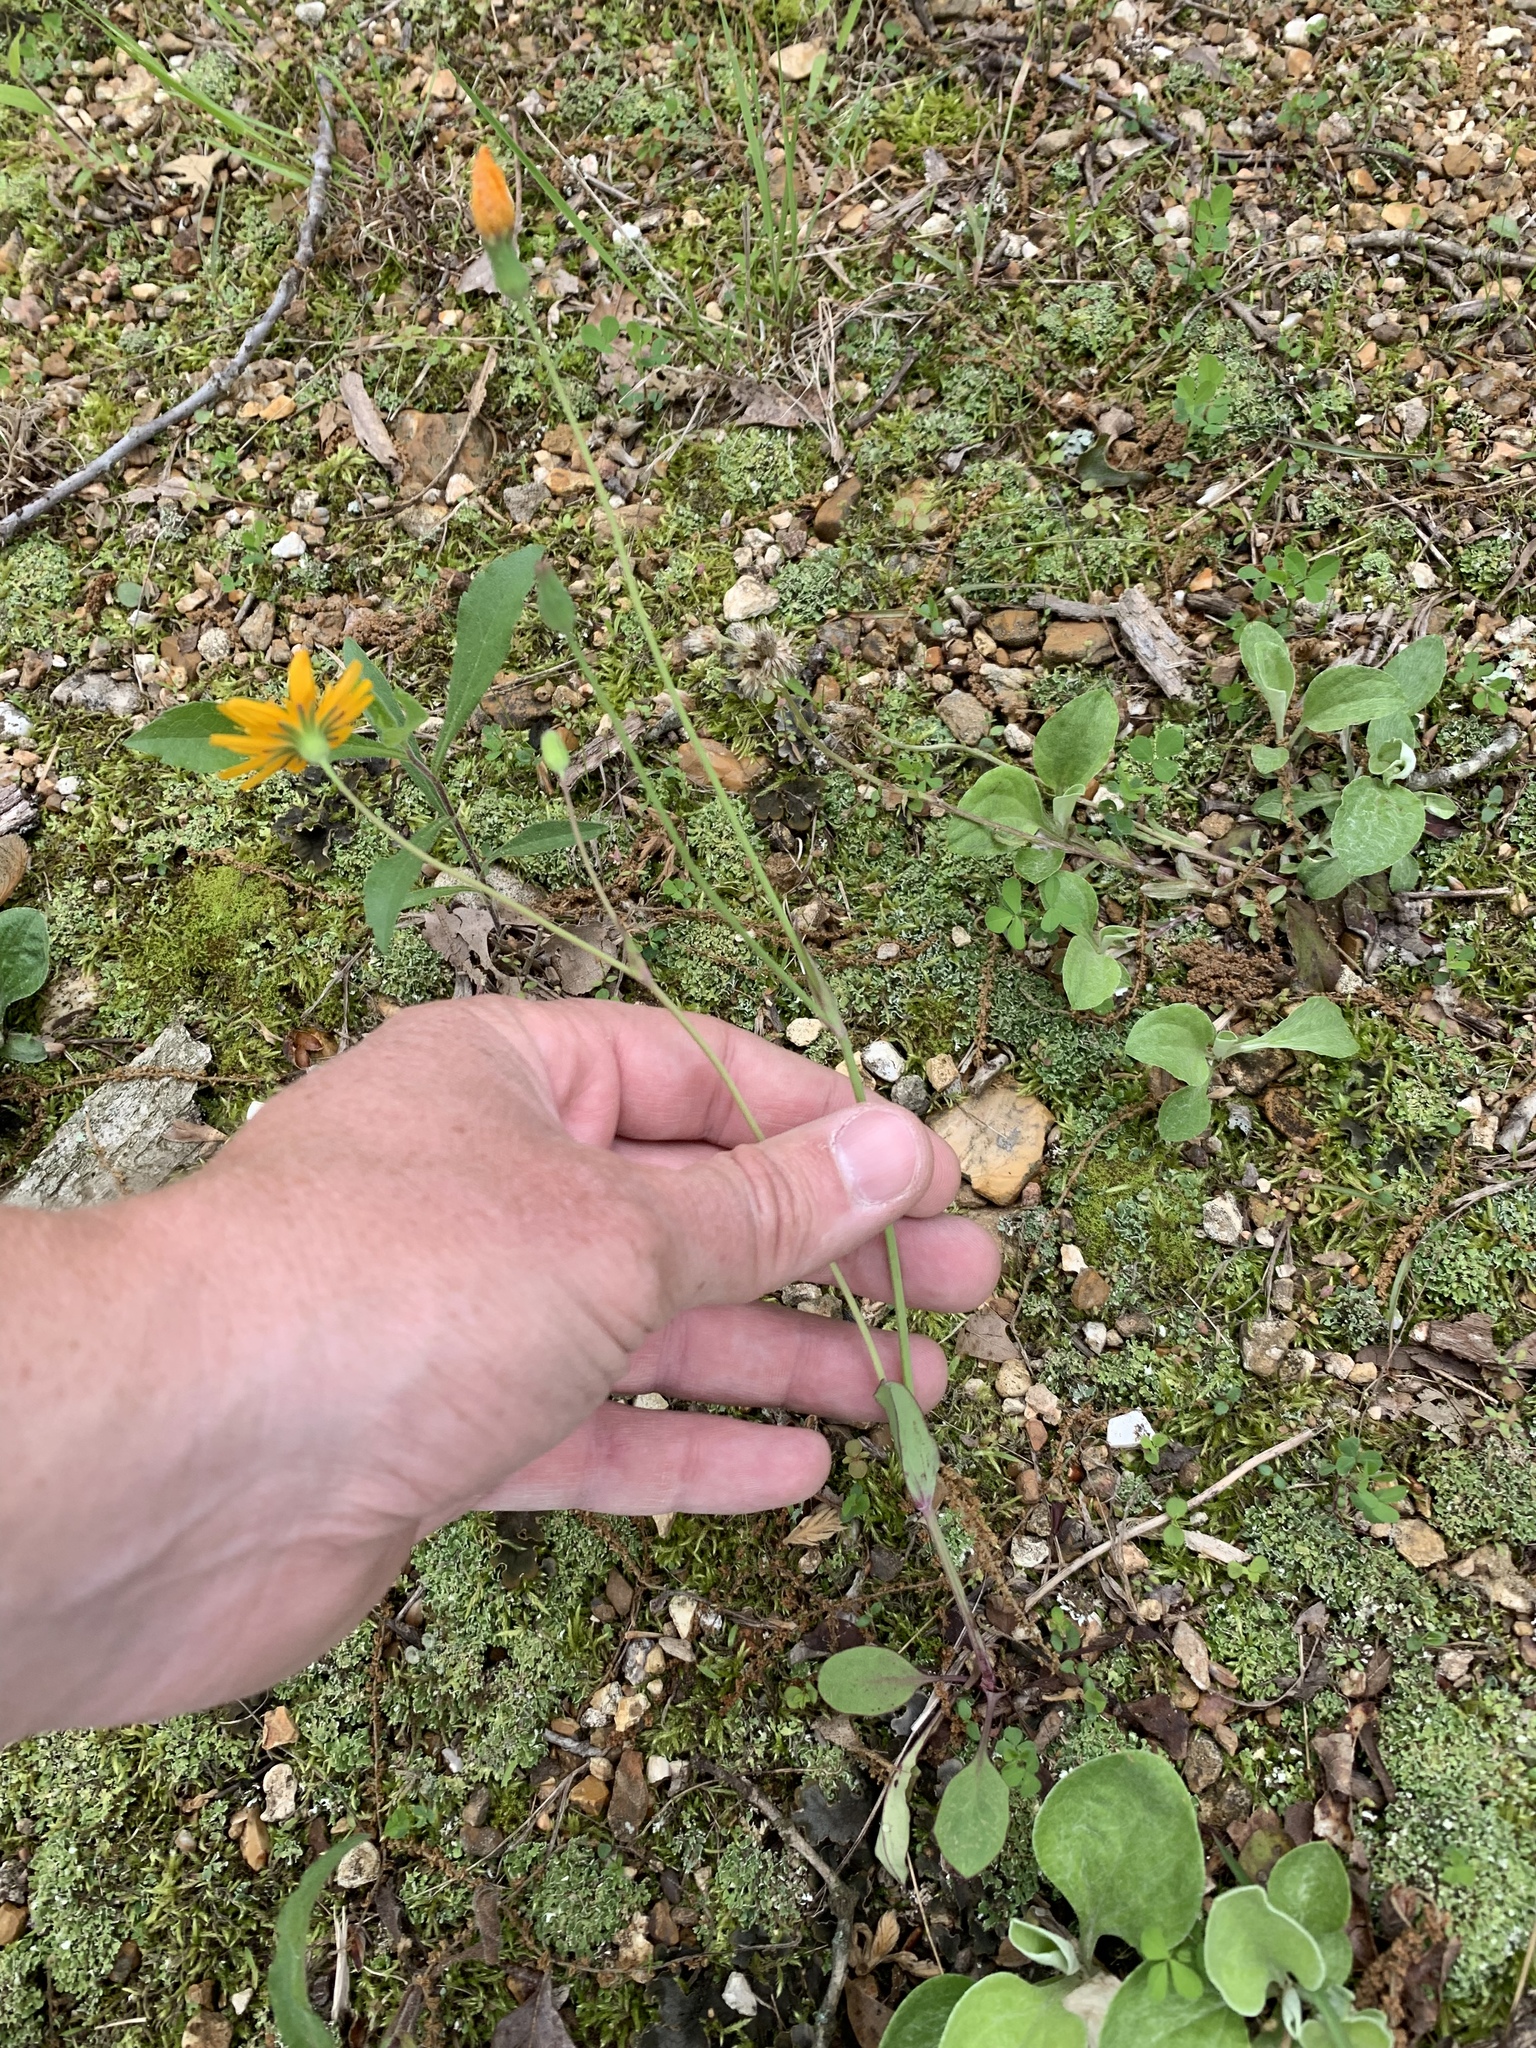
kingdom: Plantae
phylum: Tracheophyta
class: Magnoliopsida
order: Asterales
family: Asteraceae
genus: Krigia
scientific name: Krigia biflora
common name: Orange dwarf-dandelion
